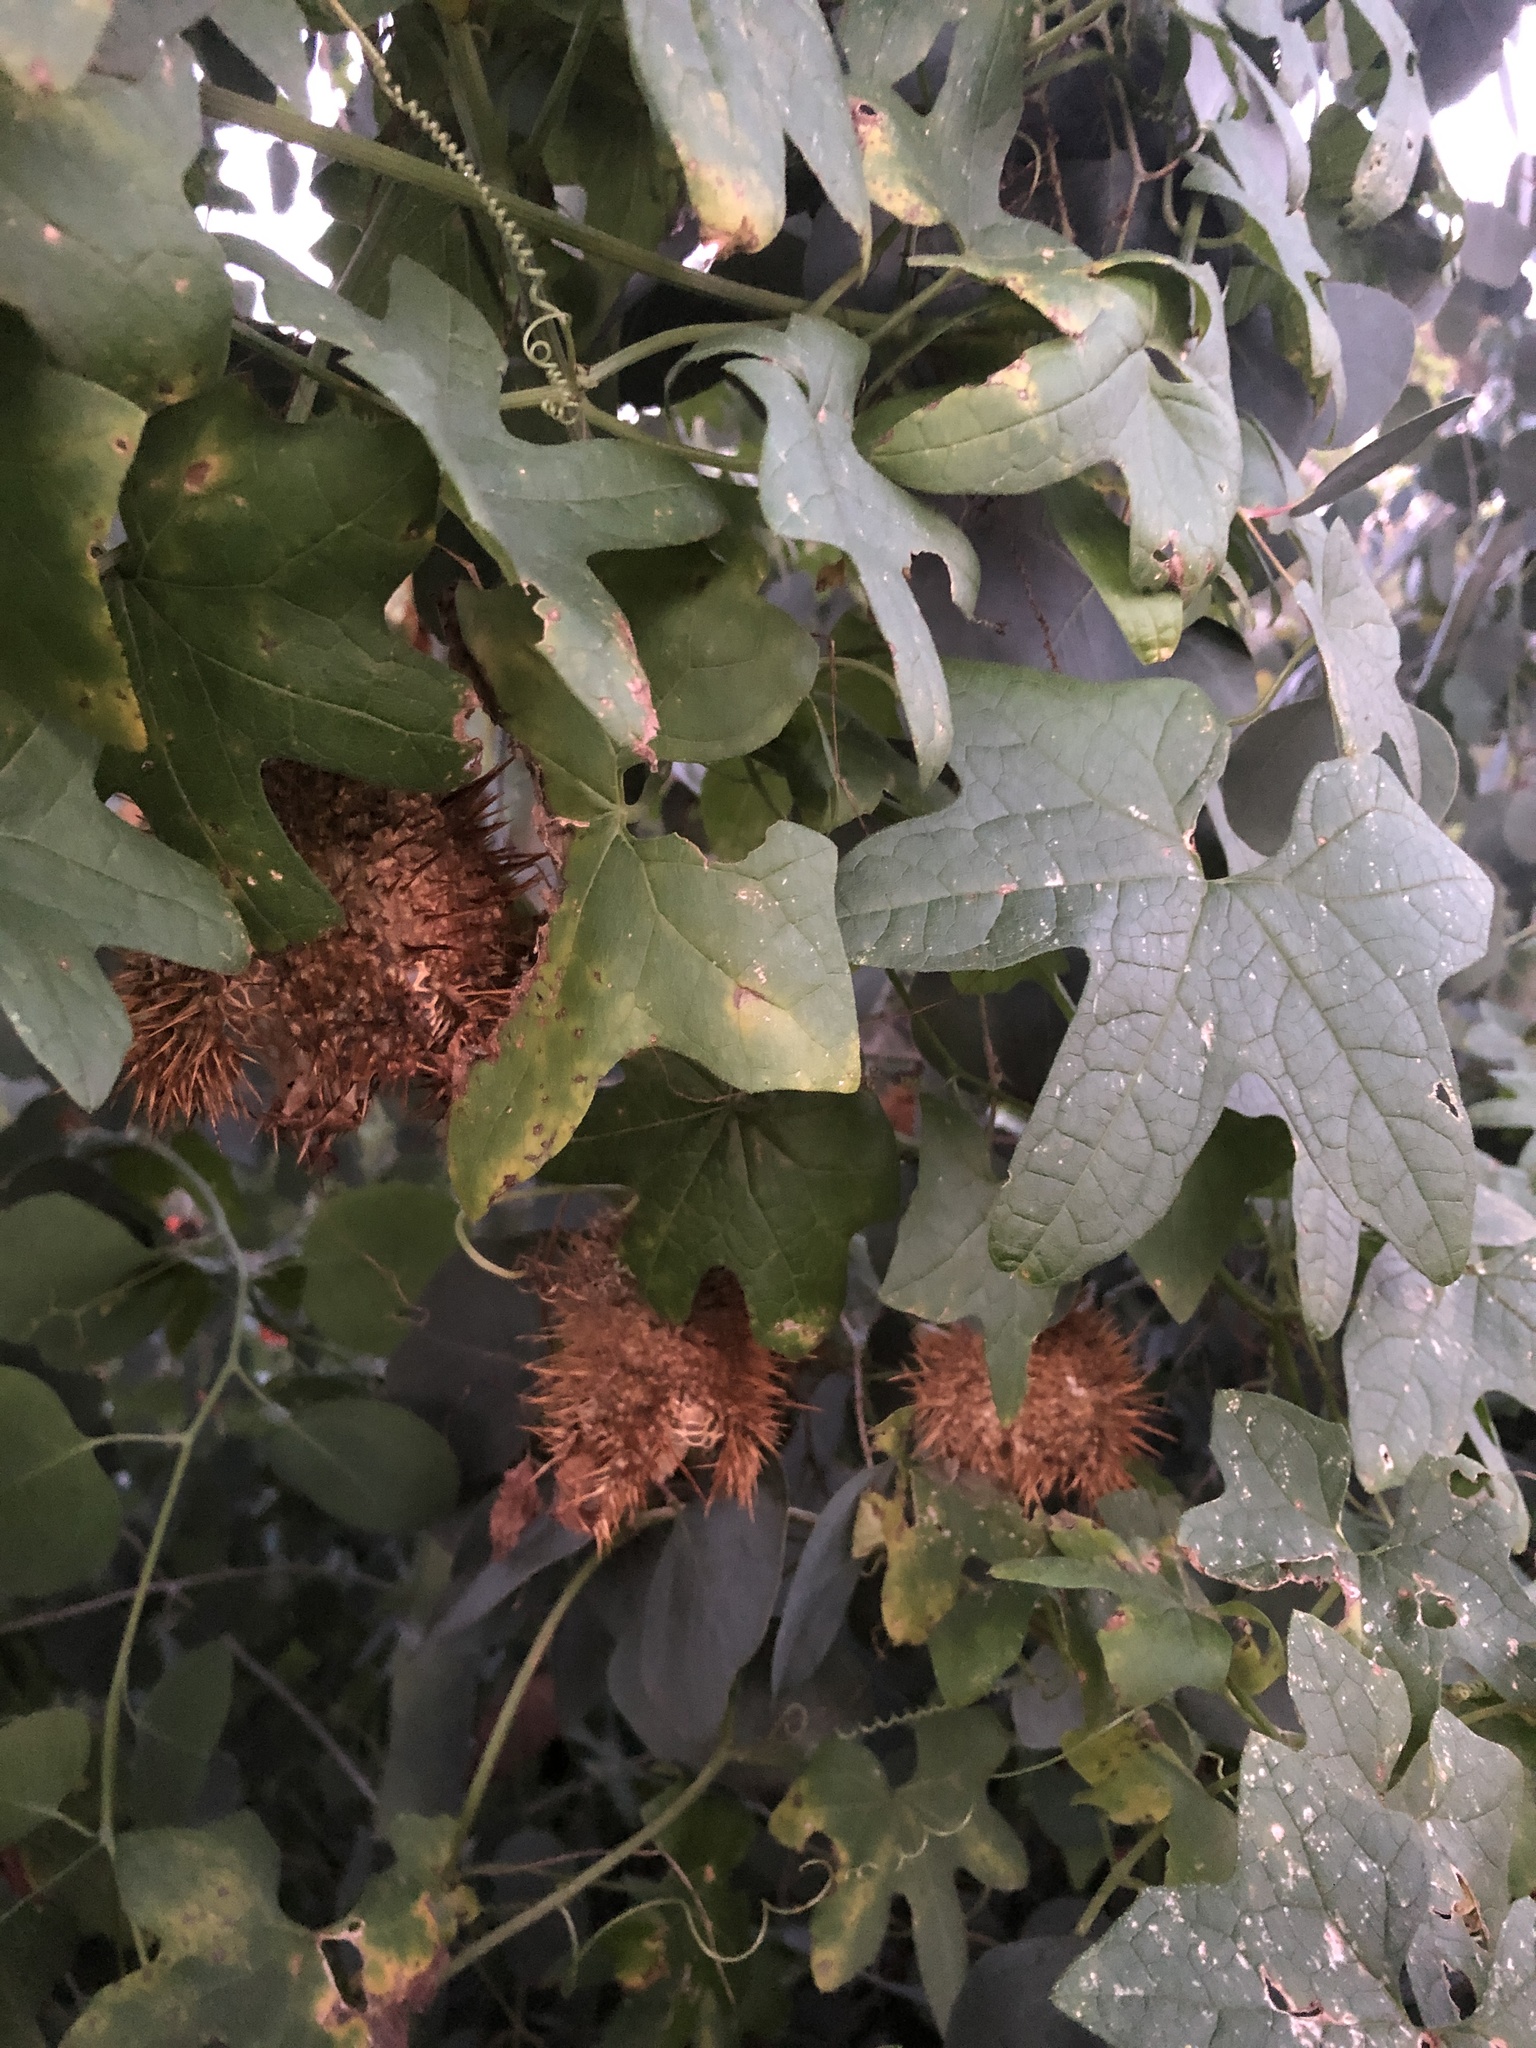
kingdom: Plantae
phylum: Tracheophyta
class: Magnoliopsida
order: Cucurbitales
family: Cucurbitaceae
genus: Marah
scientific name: Marah macrocarpa
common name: Cucamonga manroot
